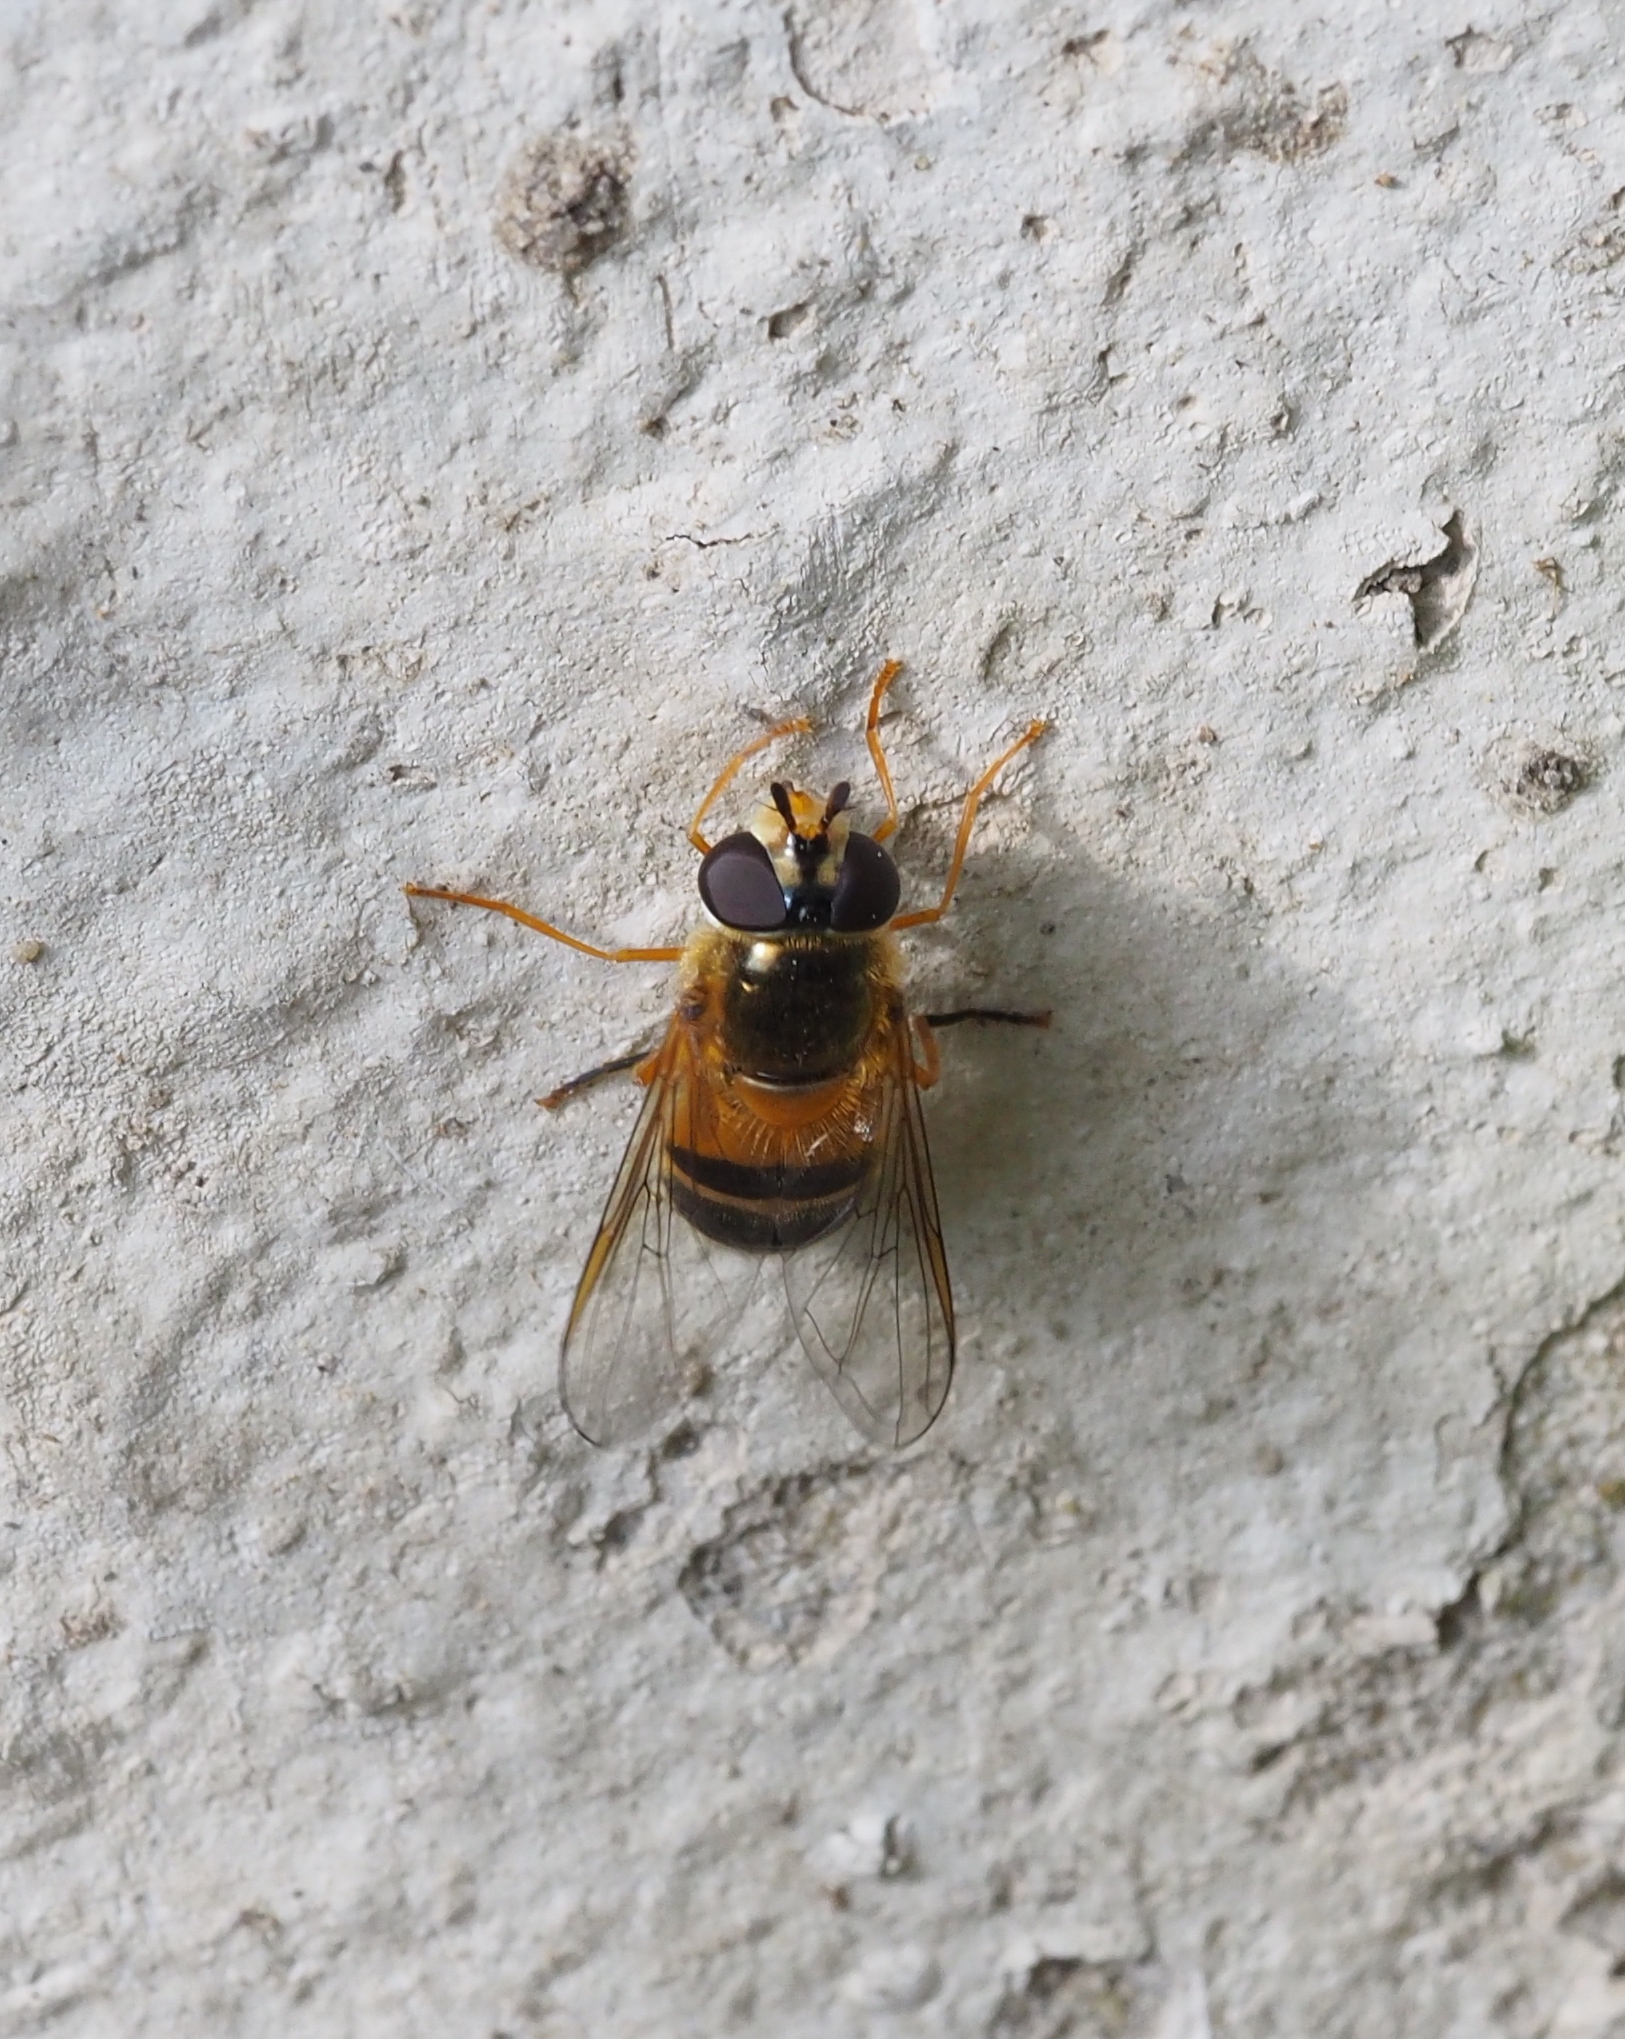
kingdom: Animalia
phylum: Arthropoda
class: Insecta
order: Diptera
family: Syrphidae
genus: Epistrophe
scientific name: Epistrophe eligans
